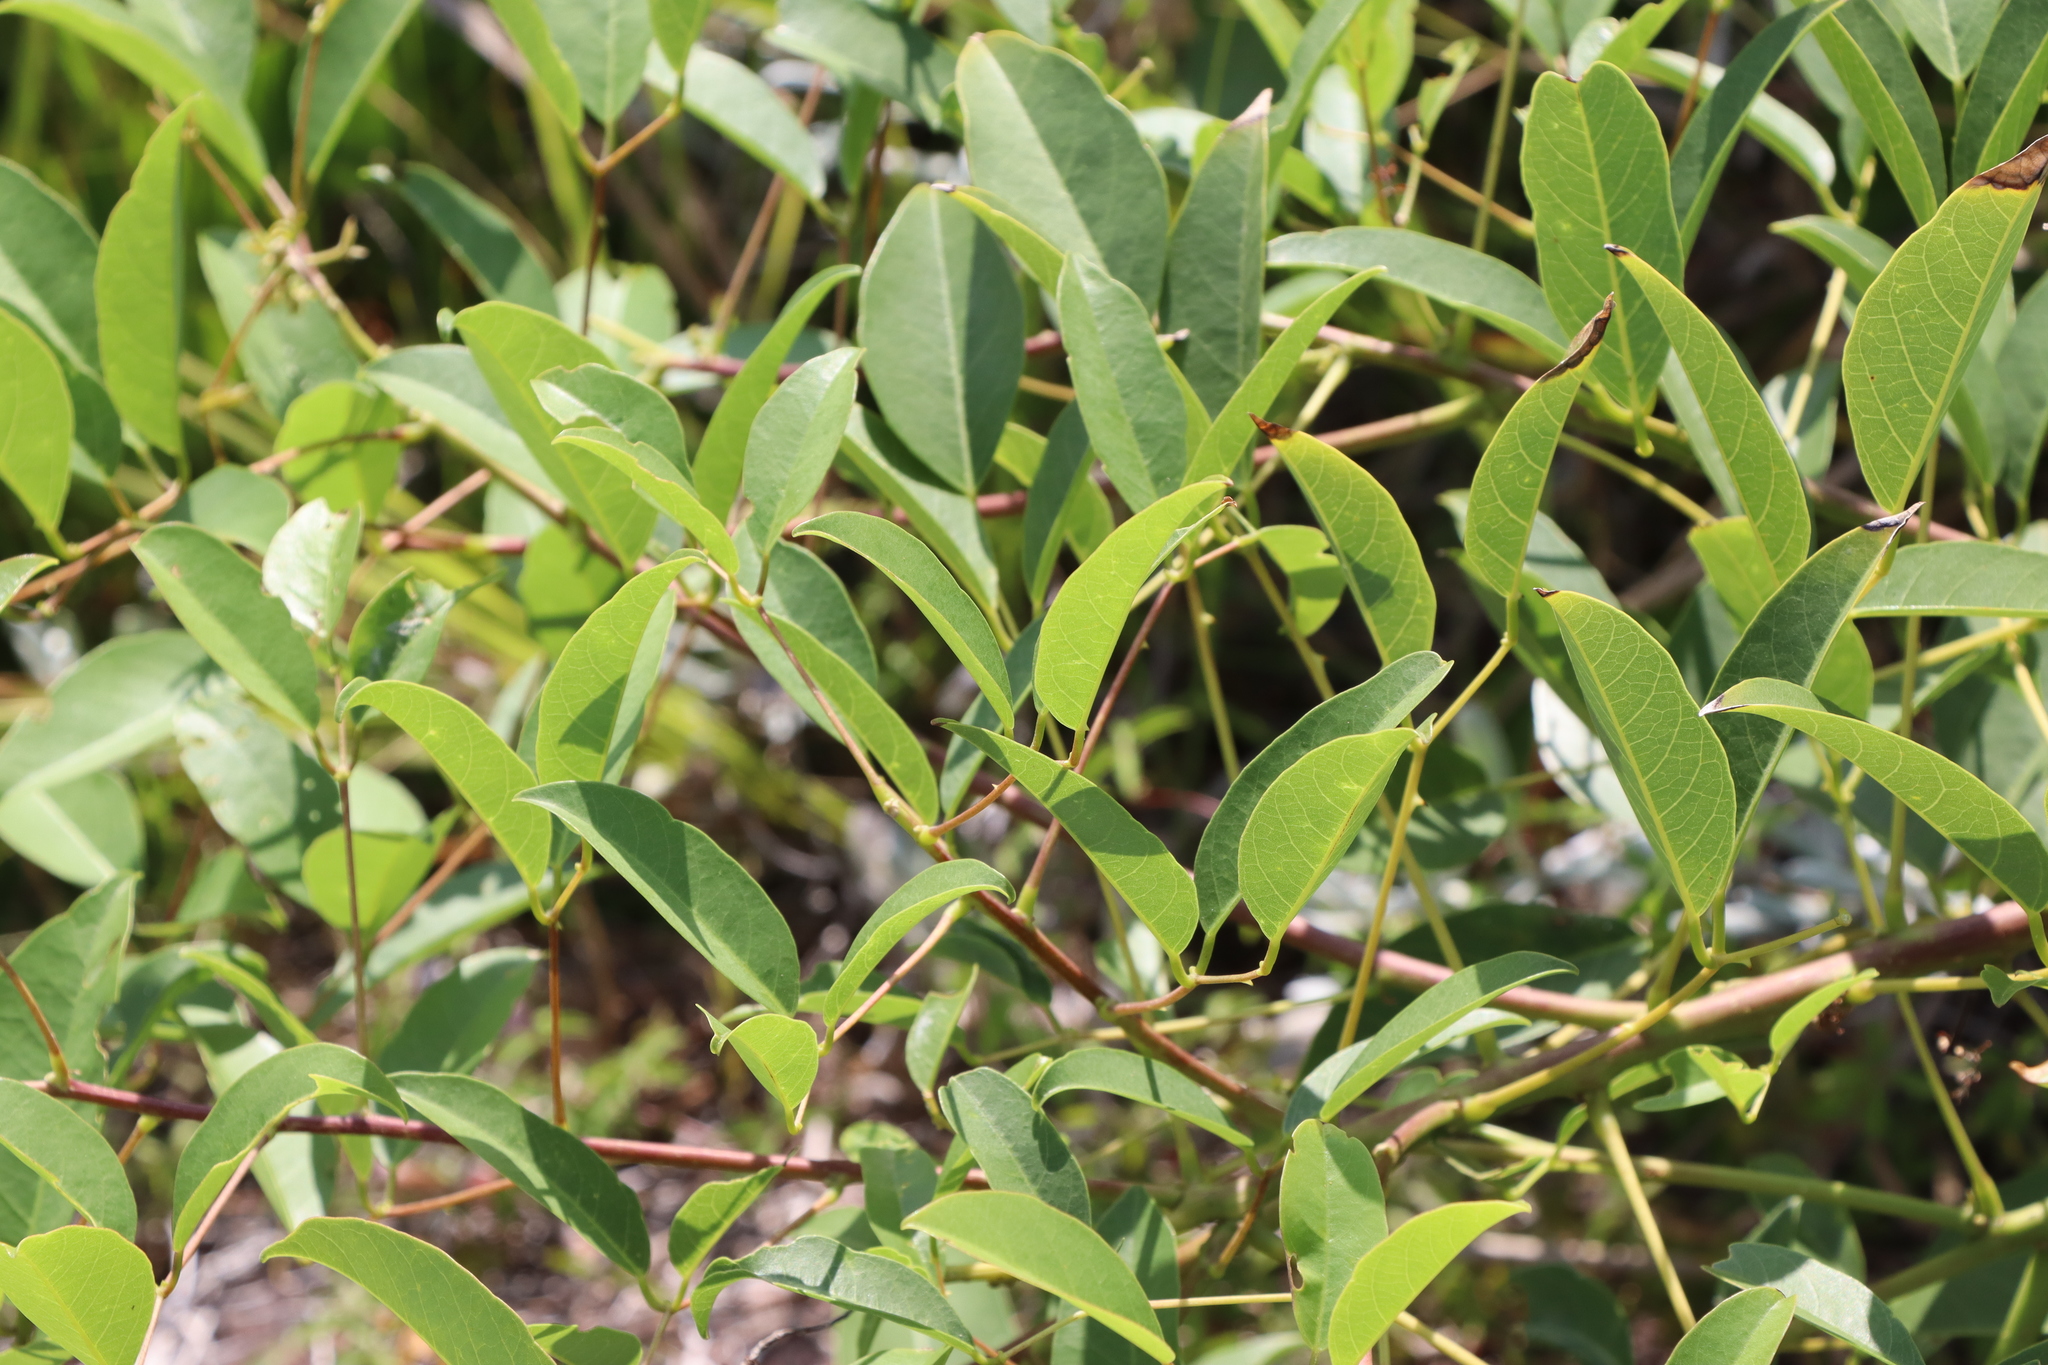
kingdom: Plantae
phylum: Tracheophyta
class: Magnoliopsida
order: Fabales
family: Fabaceae
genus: Erythrina
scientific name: Erythrina crista-galli
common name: Cockspur coral tree
